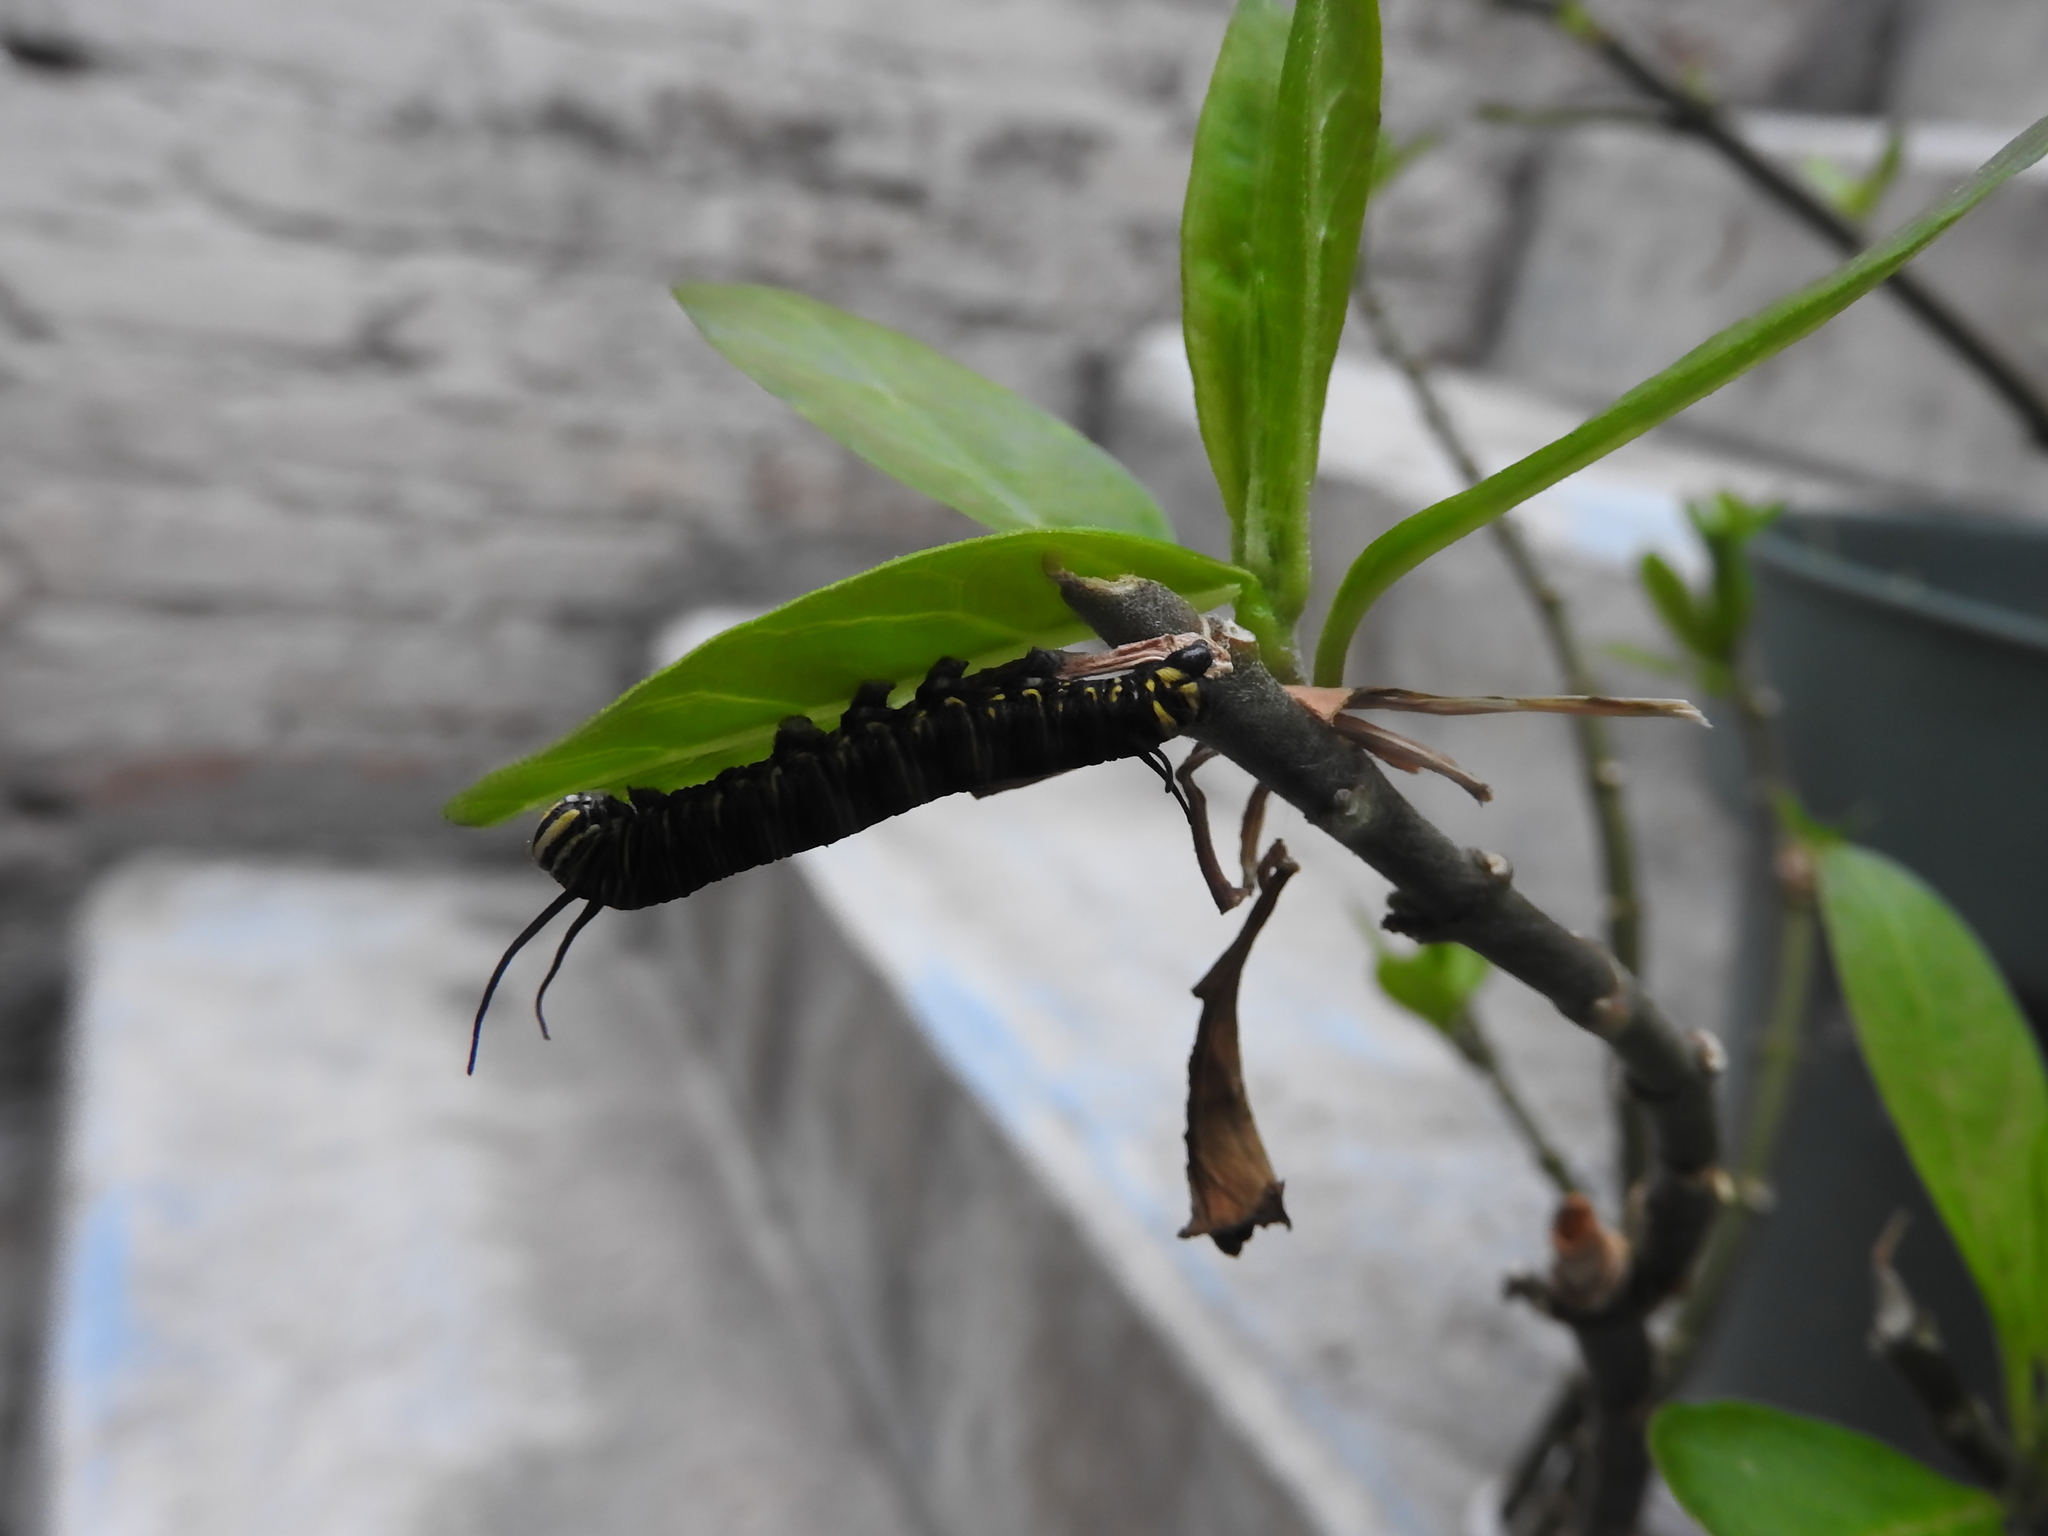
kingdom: Animalia
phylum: Arthropoda
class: Insecta
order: Lepidoptera
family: Nymphalidae
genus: Danaus
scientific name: Danaus plexippus
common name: Monarch
